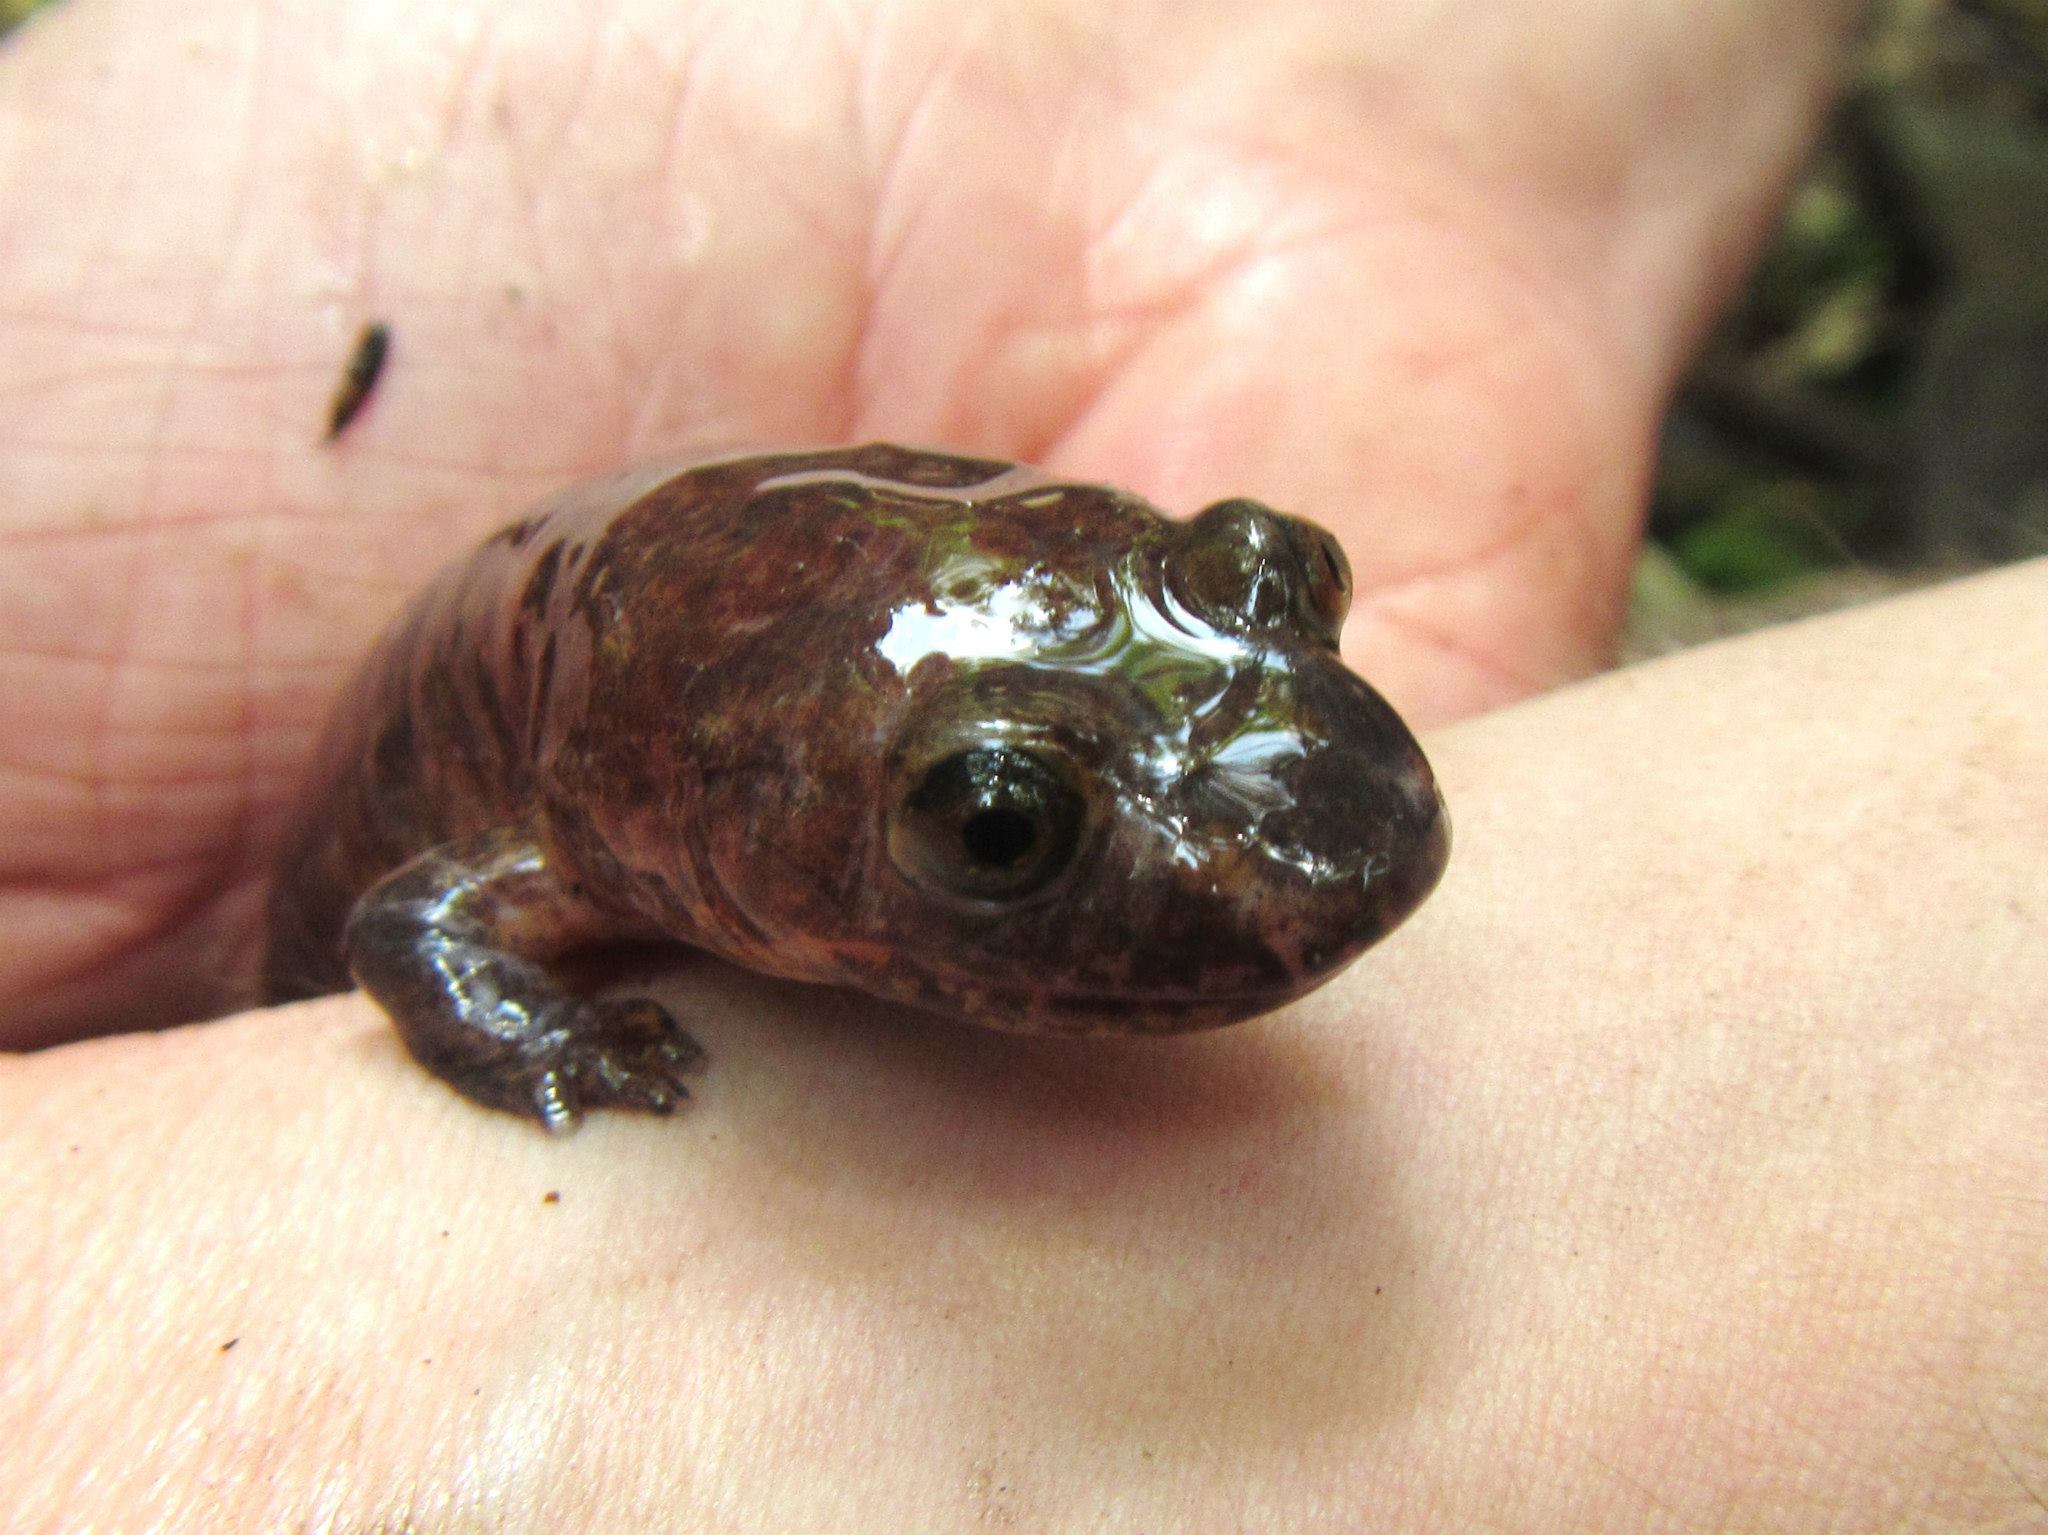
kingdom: Animalia
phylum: Chordata
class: Amphibia
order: Caudata
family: Plethodontidae
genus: Gyrinophilus
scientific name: Gyrinophilus porphyriticus
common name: Spring salamander
